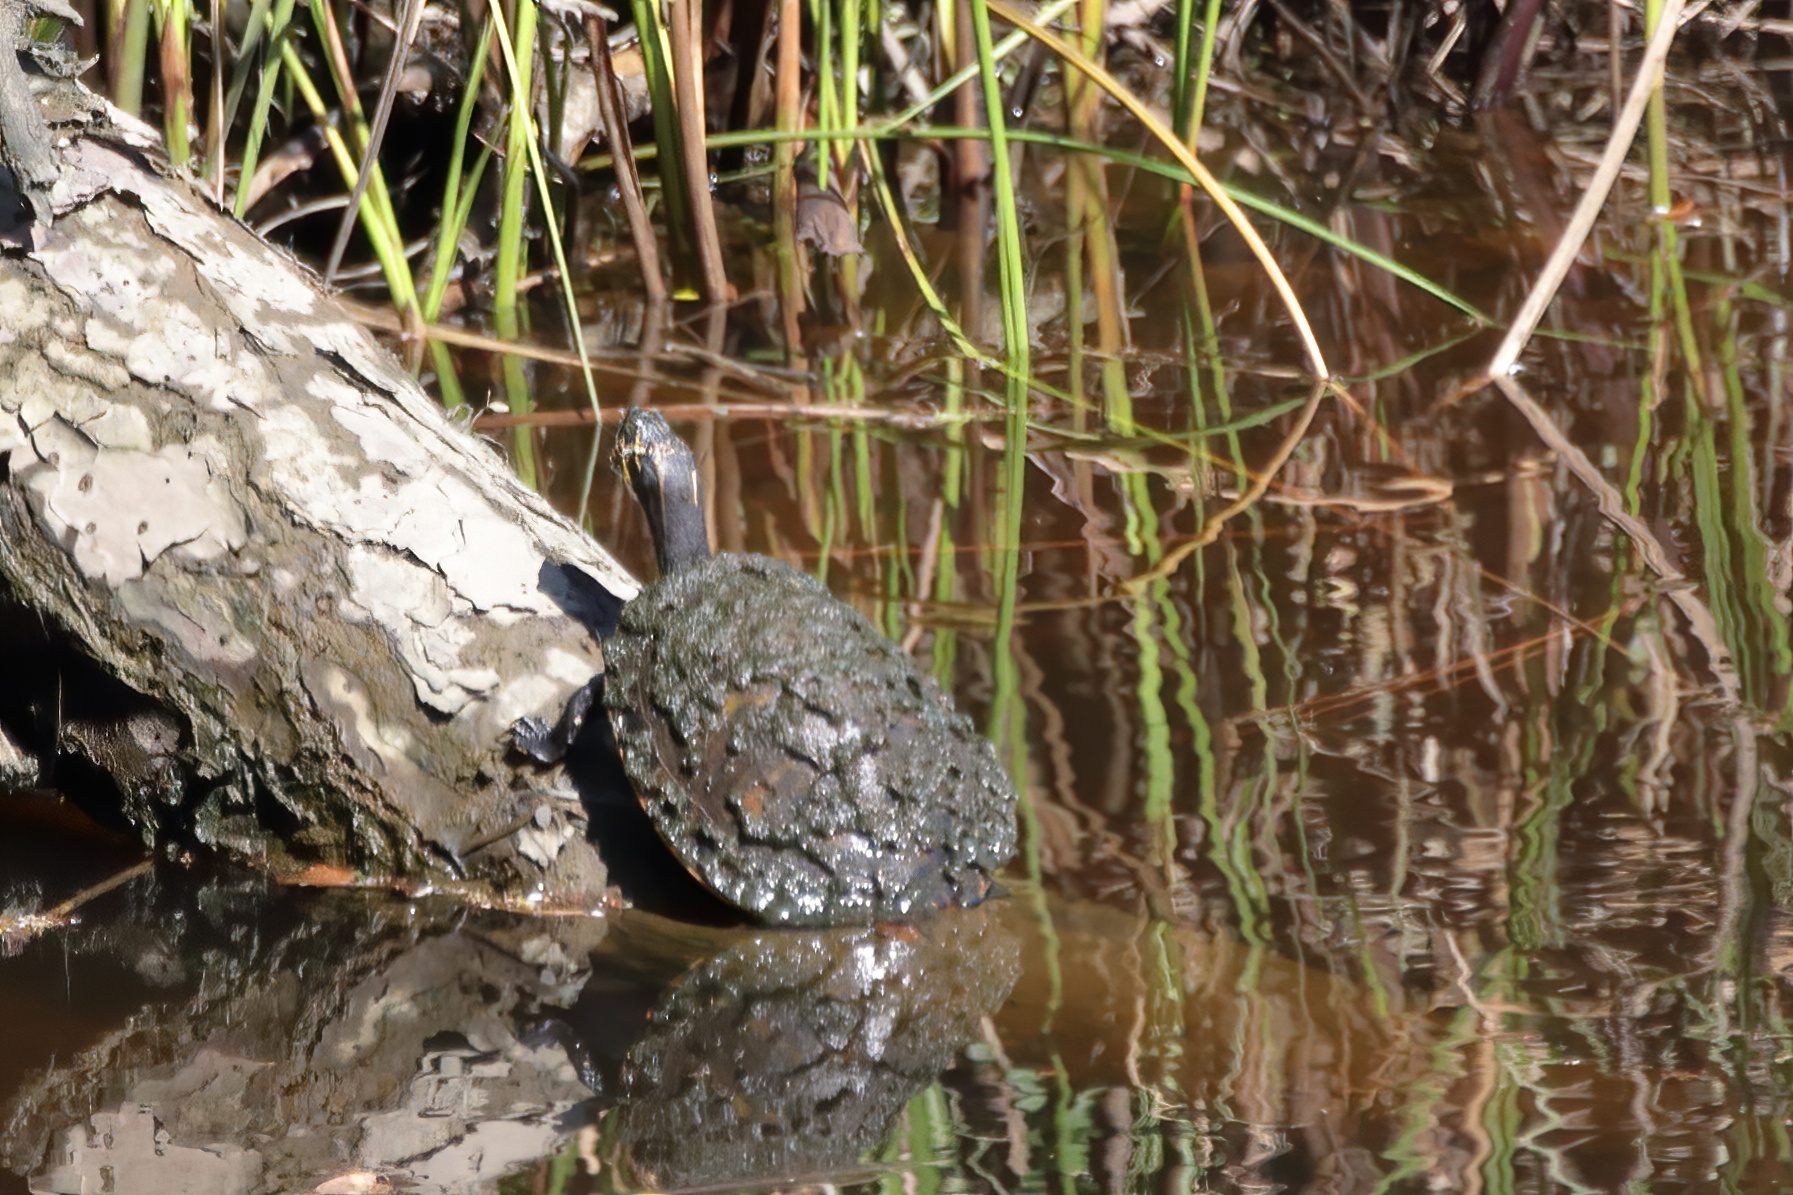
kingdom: Animalia
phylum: Chordata
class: Testudines
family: Emydidae
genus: Pseudemys
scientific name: Pseudemys concinna
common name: Eastern river cooter
